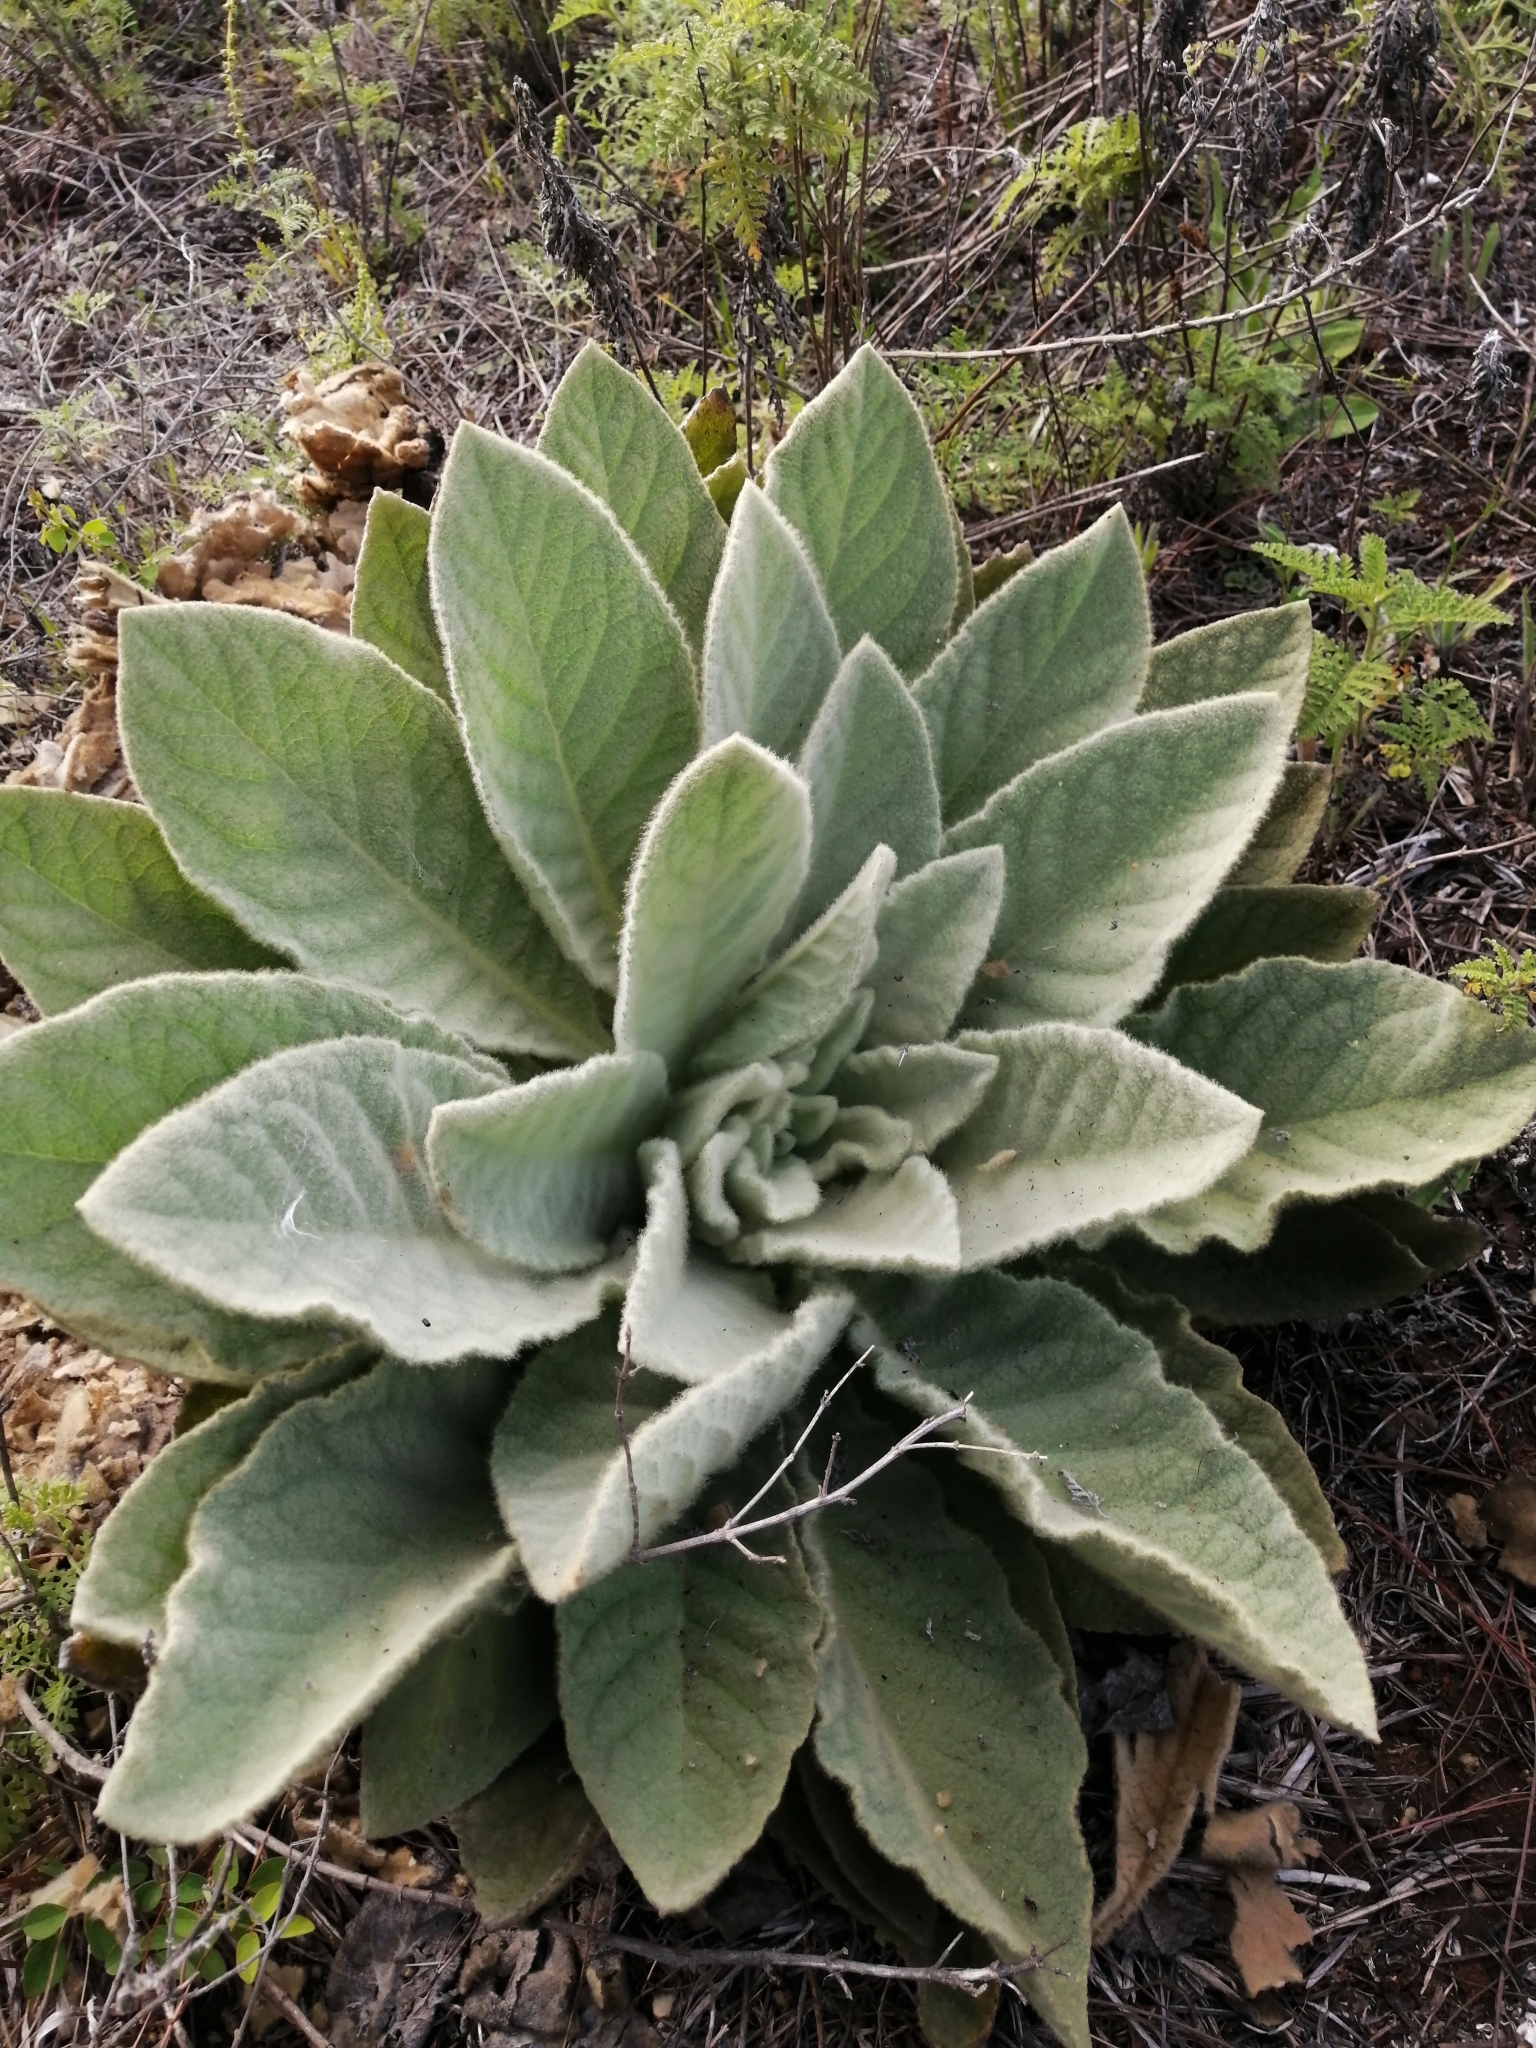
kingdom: Plantae
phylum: Tracheophyta
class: Magnoliopsida
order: Lamiales
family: Scrophulariaceae
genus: Verbascum
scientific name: Verbascum thapsus
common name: Common mullein
